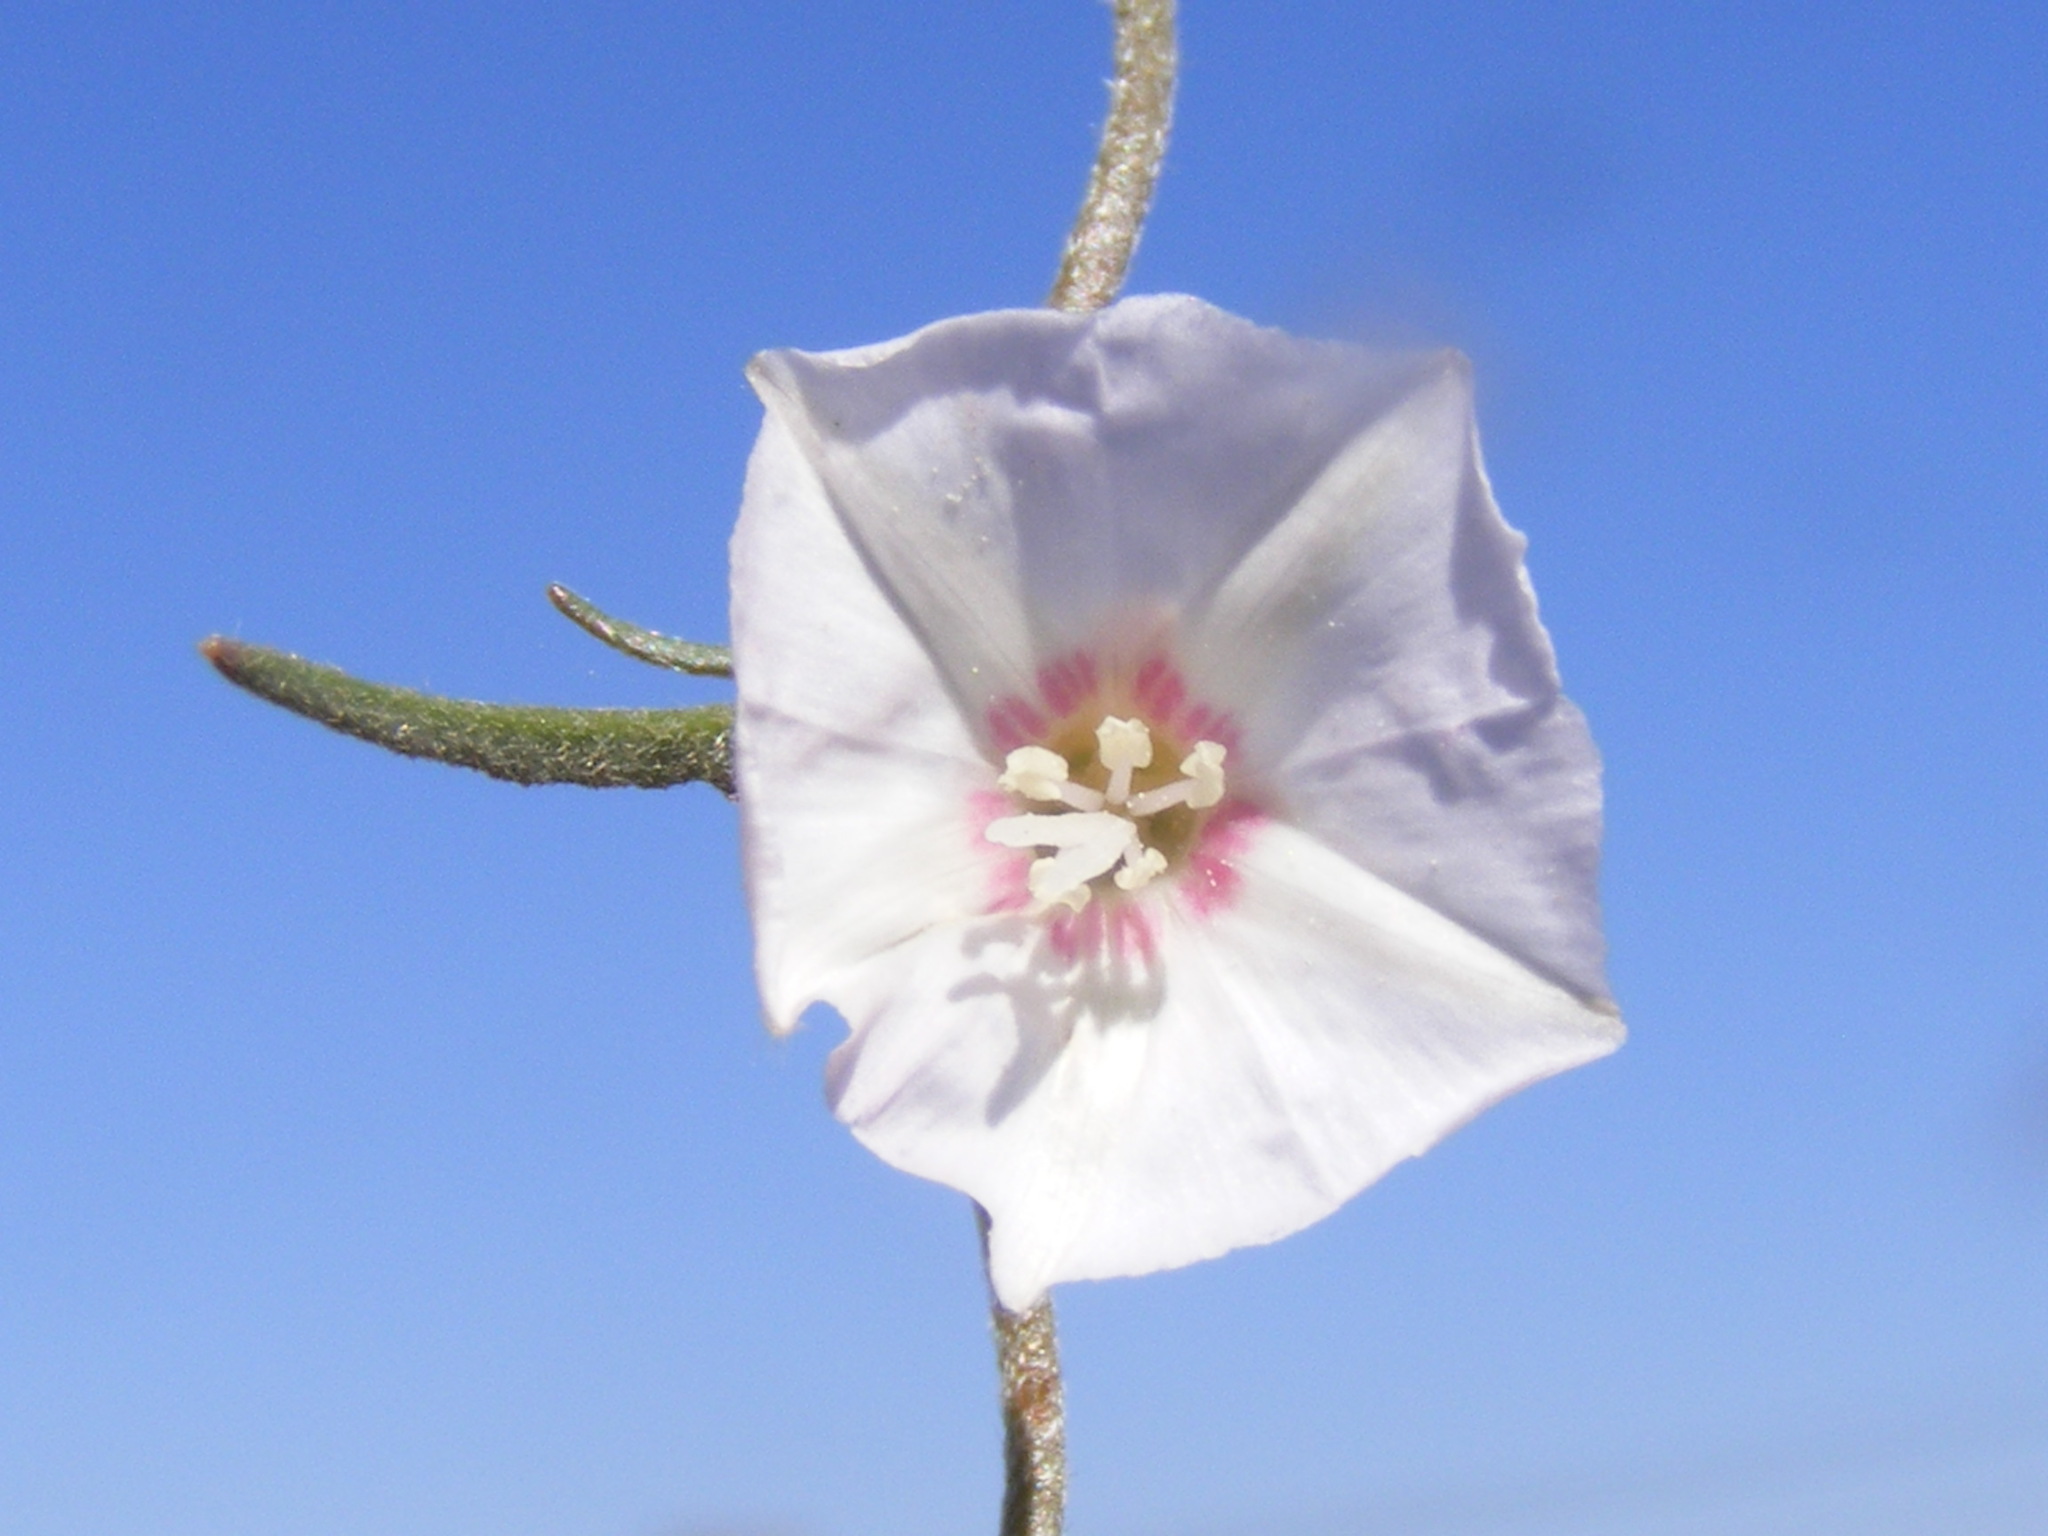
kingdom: Plantae
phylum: Tracheophyta
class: Magnoliopsida
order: Solanales
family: Convolvulaceae
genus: Convolvulus
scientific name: Convolvulus boedeckerianus
